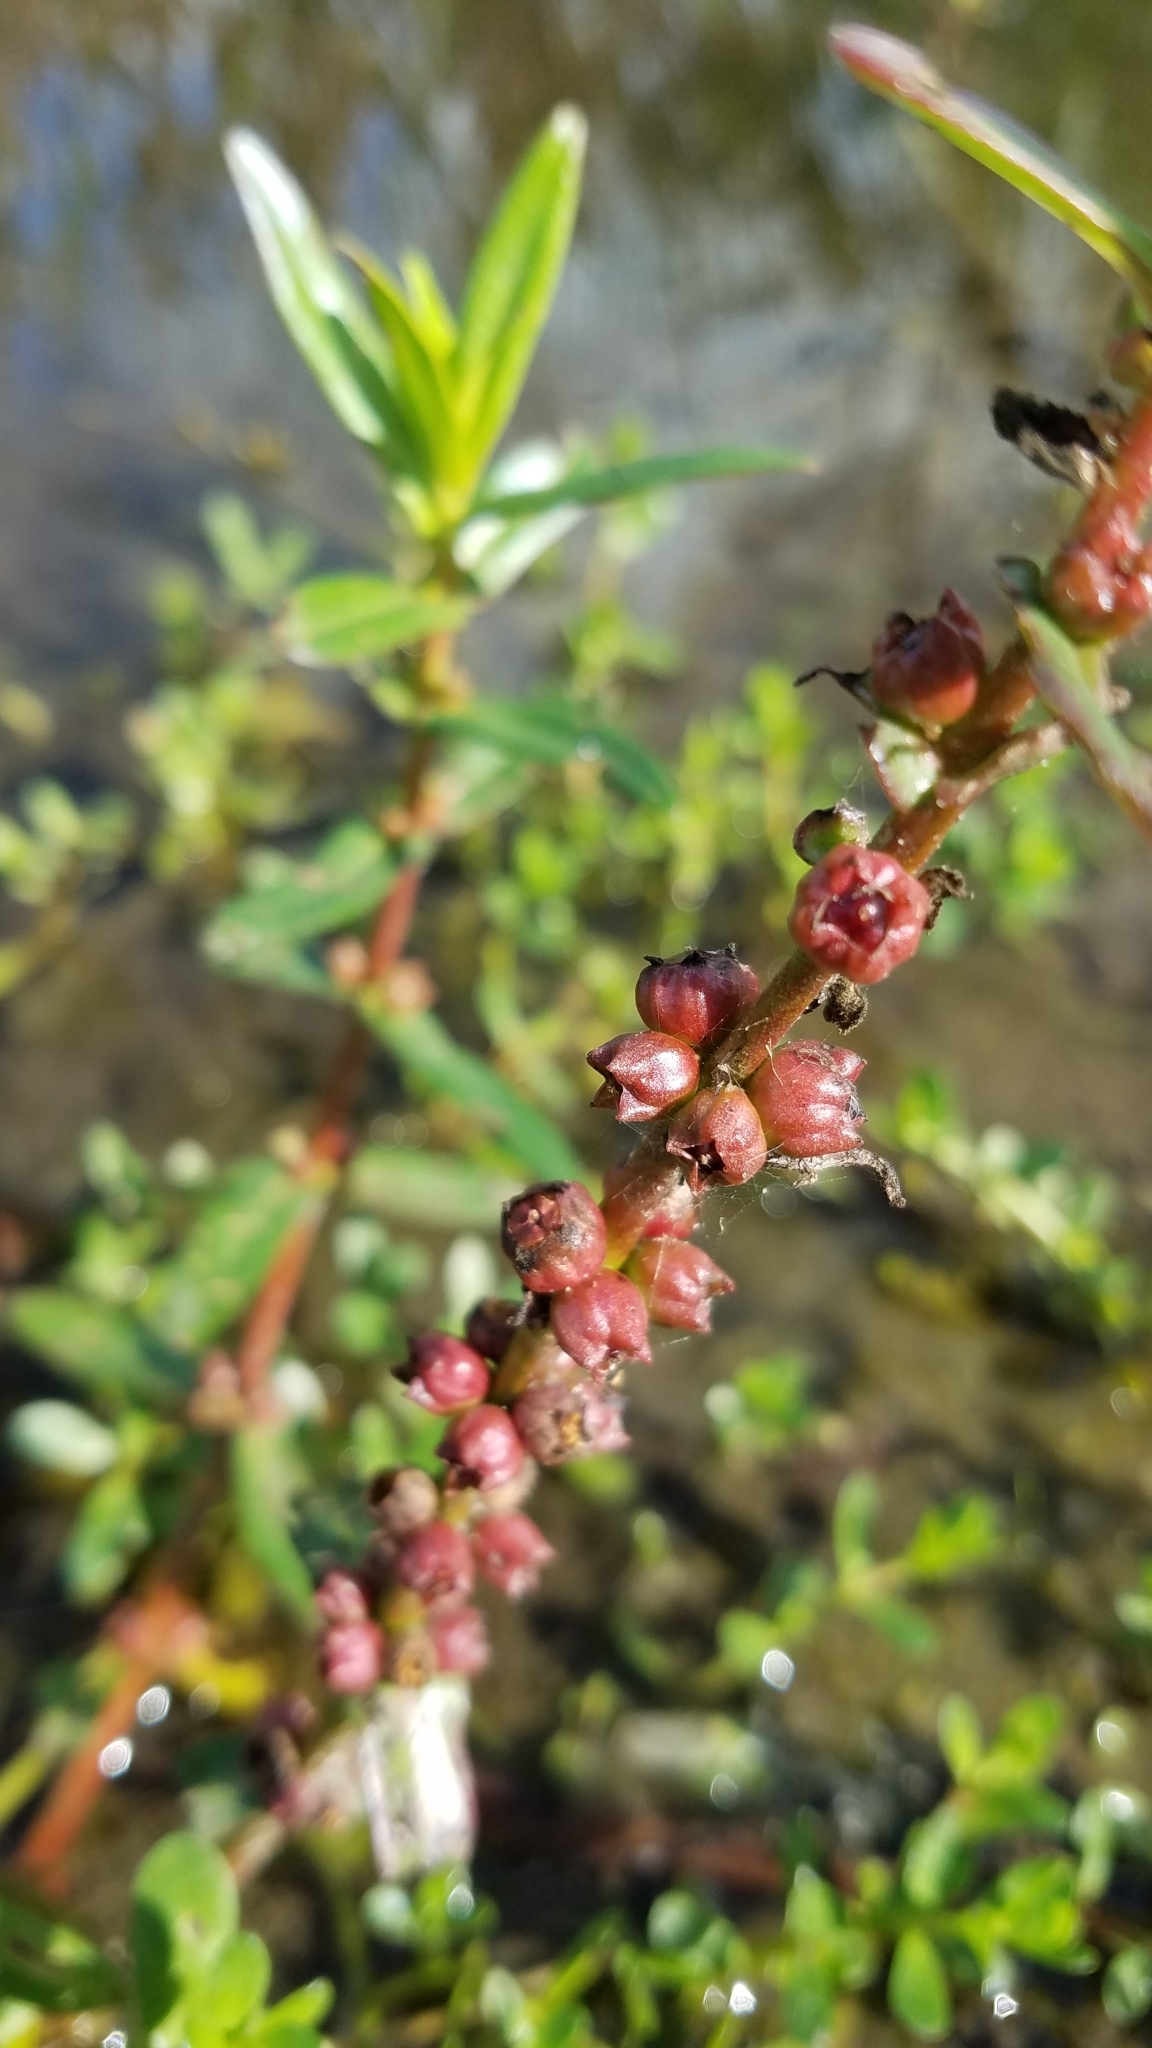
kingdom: Plantae
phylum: Tracheophyta
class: Magnoliopsida
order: Myrtales
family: Lythraceae
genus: Ammannia
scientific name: Ammannia latifolia
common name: Toothcup
